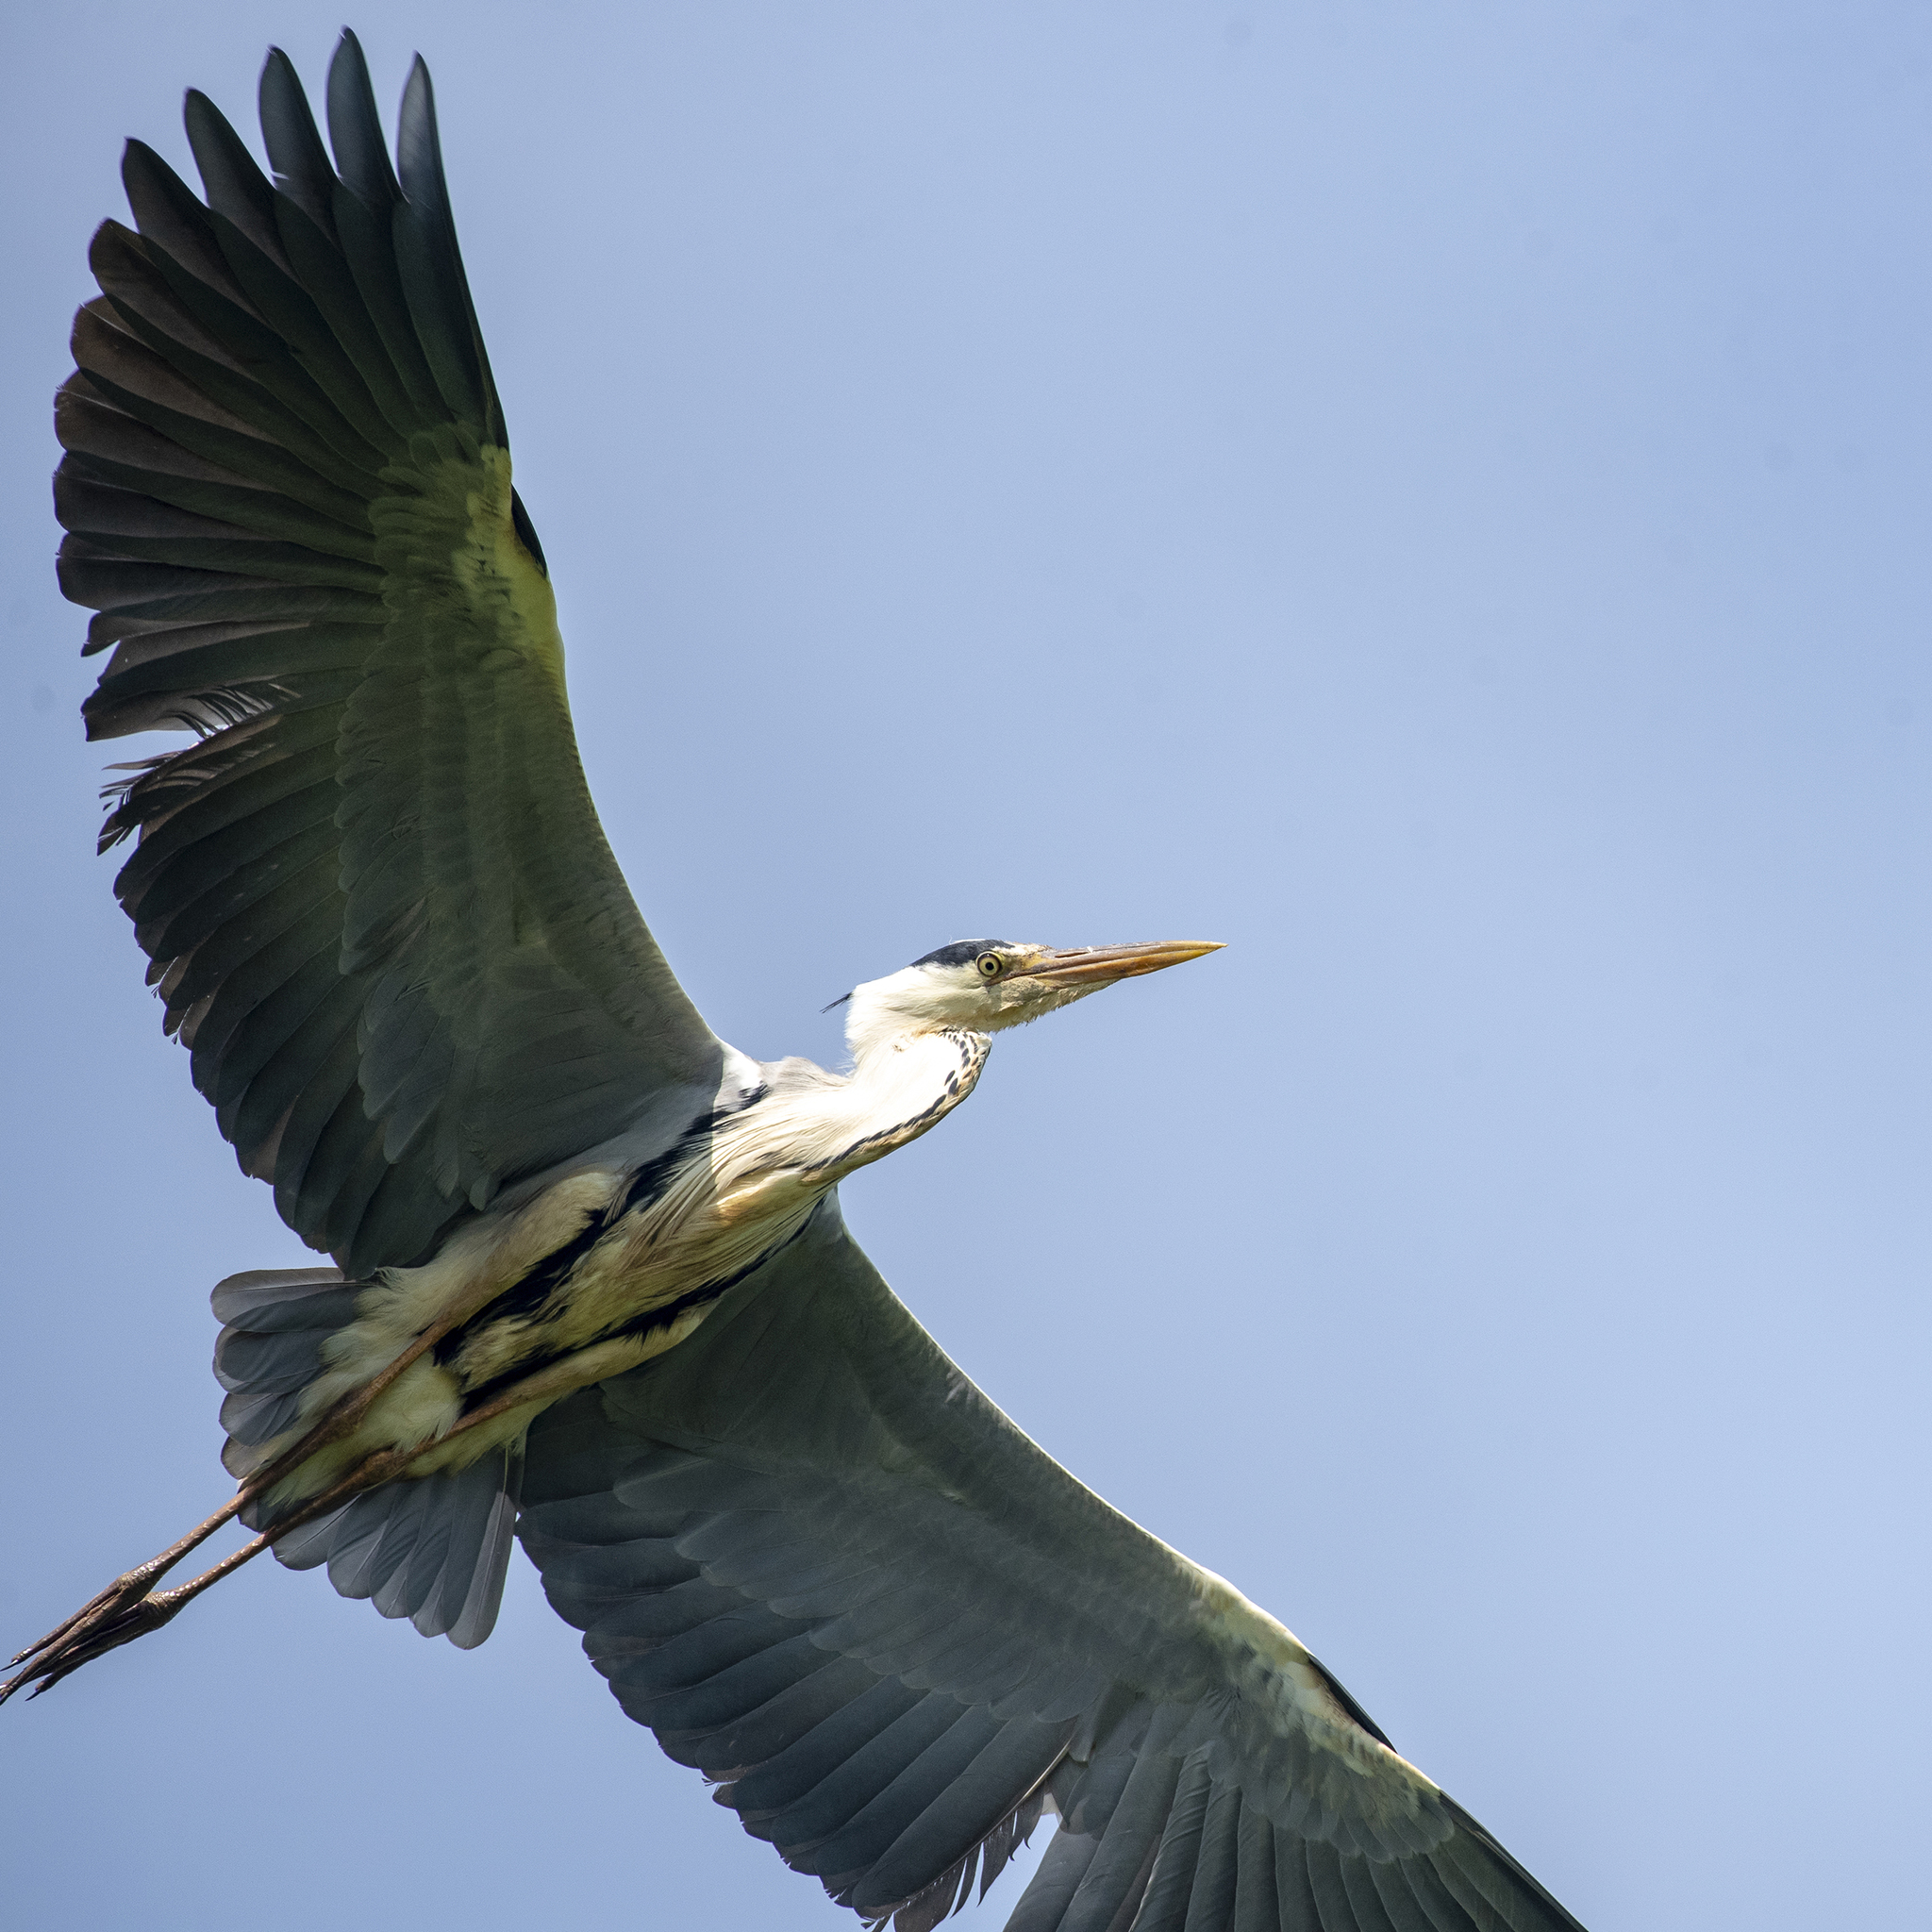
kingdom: Animalia
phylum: Chordata
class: Aves
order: Pelecaniformes
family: Ardeidae
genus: Ardea
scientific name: Ardea cinerea
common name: Grey heron
